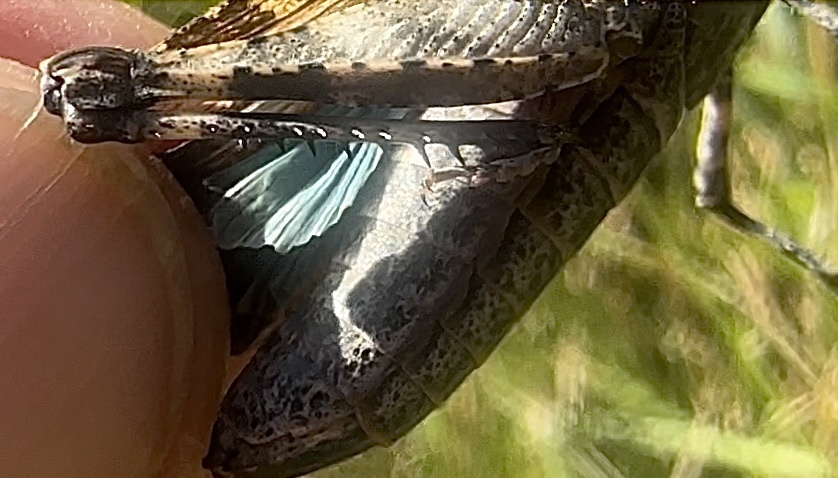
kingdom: Animalia
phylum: Arthropoda
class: Insecta
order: Orthoptera
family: Acrididae
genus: Oedipoda
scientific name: Oedipoda caerulescens
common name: Blue-winged grasshopper
